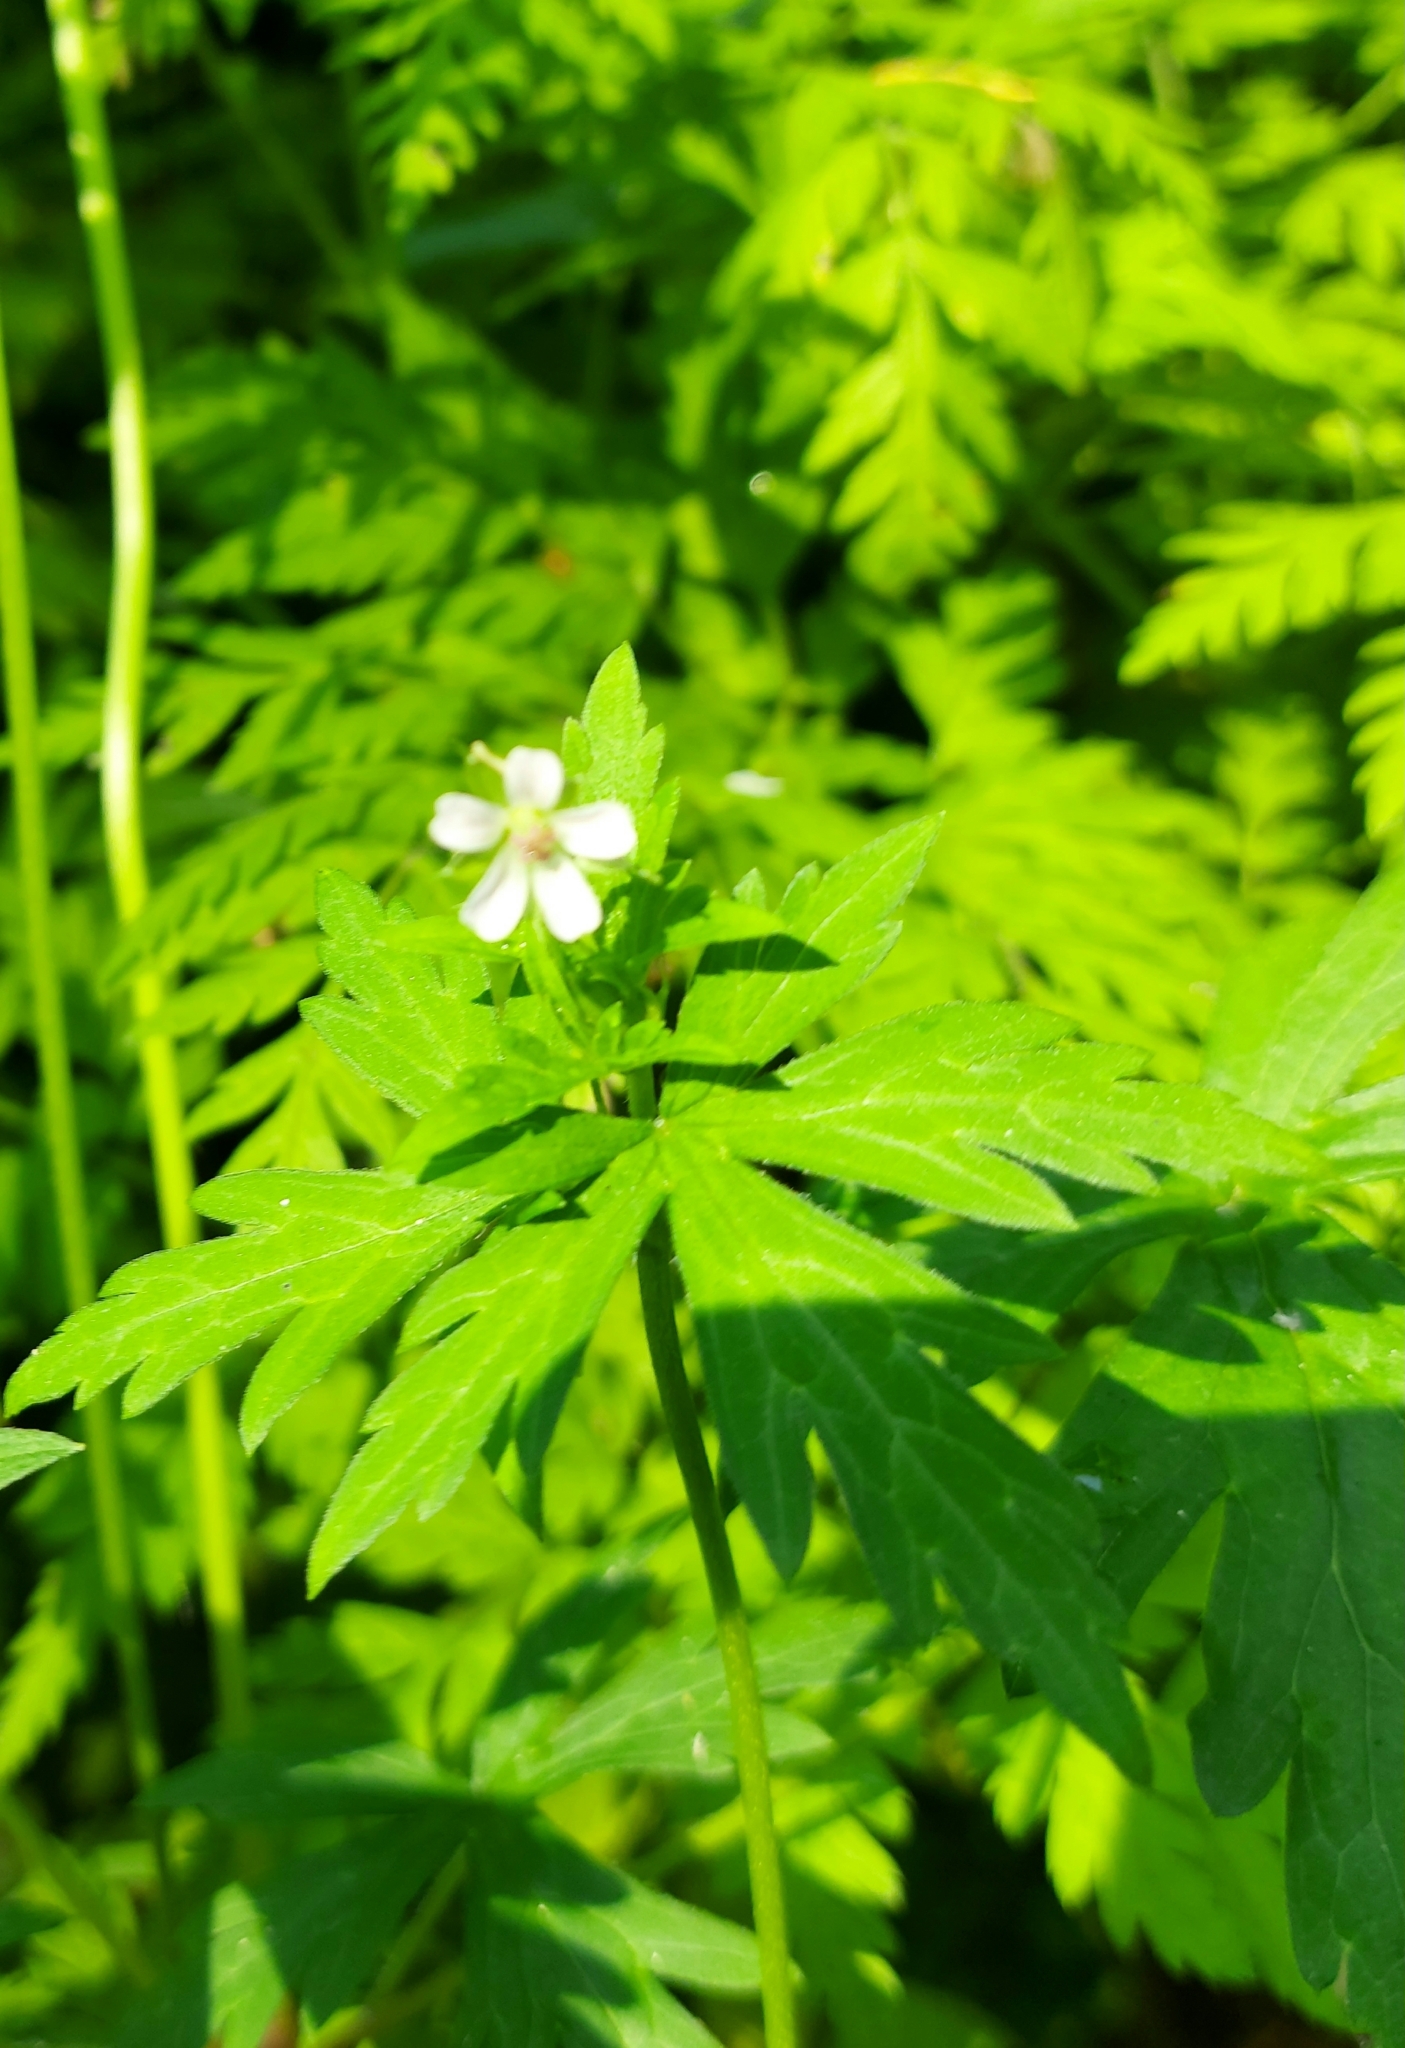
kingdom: Plantae
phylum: Tracheophyta
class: Magnoliopsida
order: Geraniales
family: Geraniaceae
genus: Geranium
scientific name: Geranium sibiricum
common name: Siberian crane's-bill
